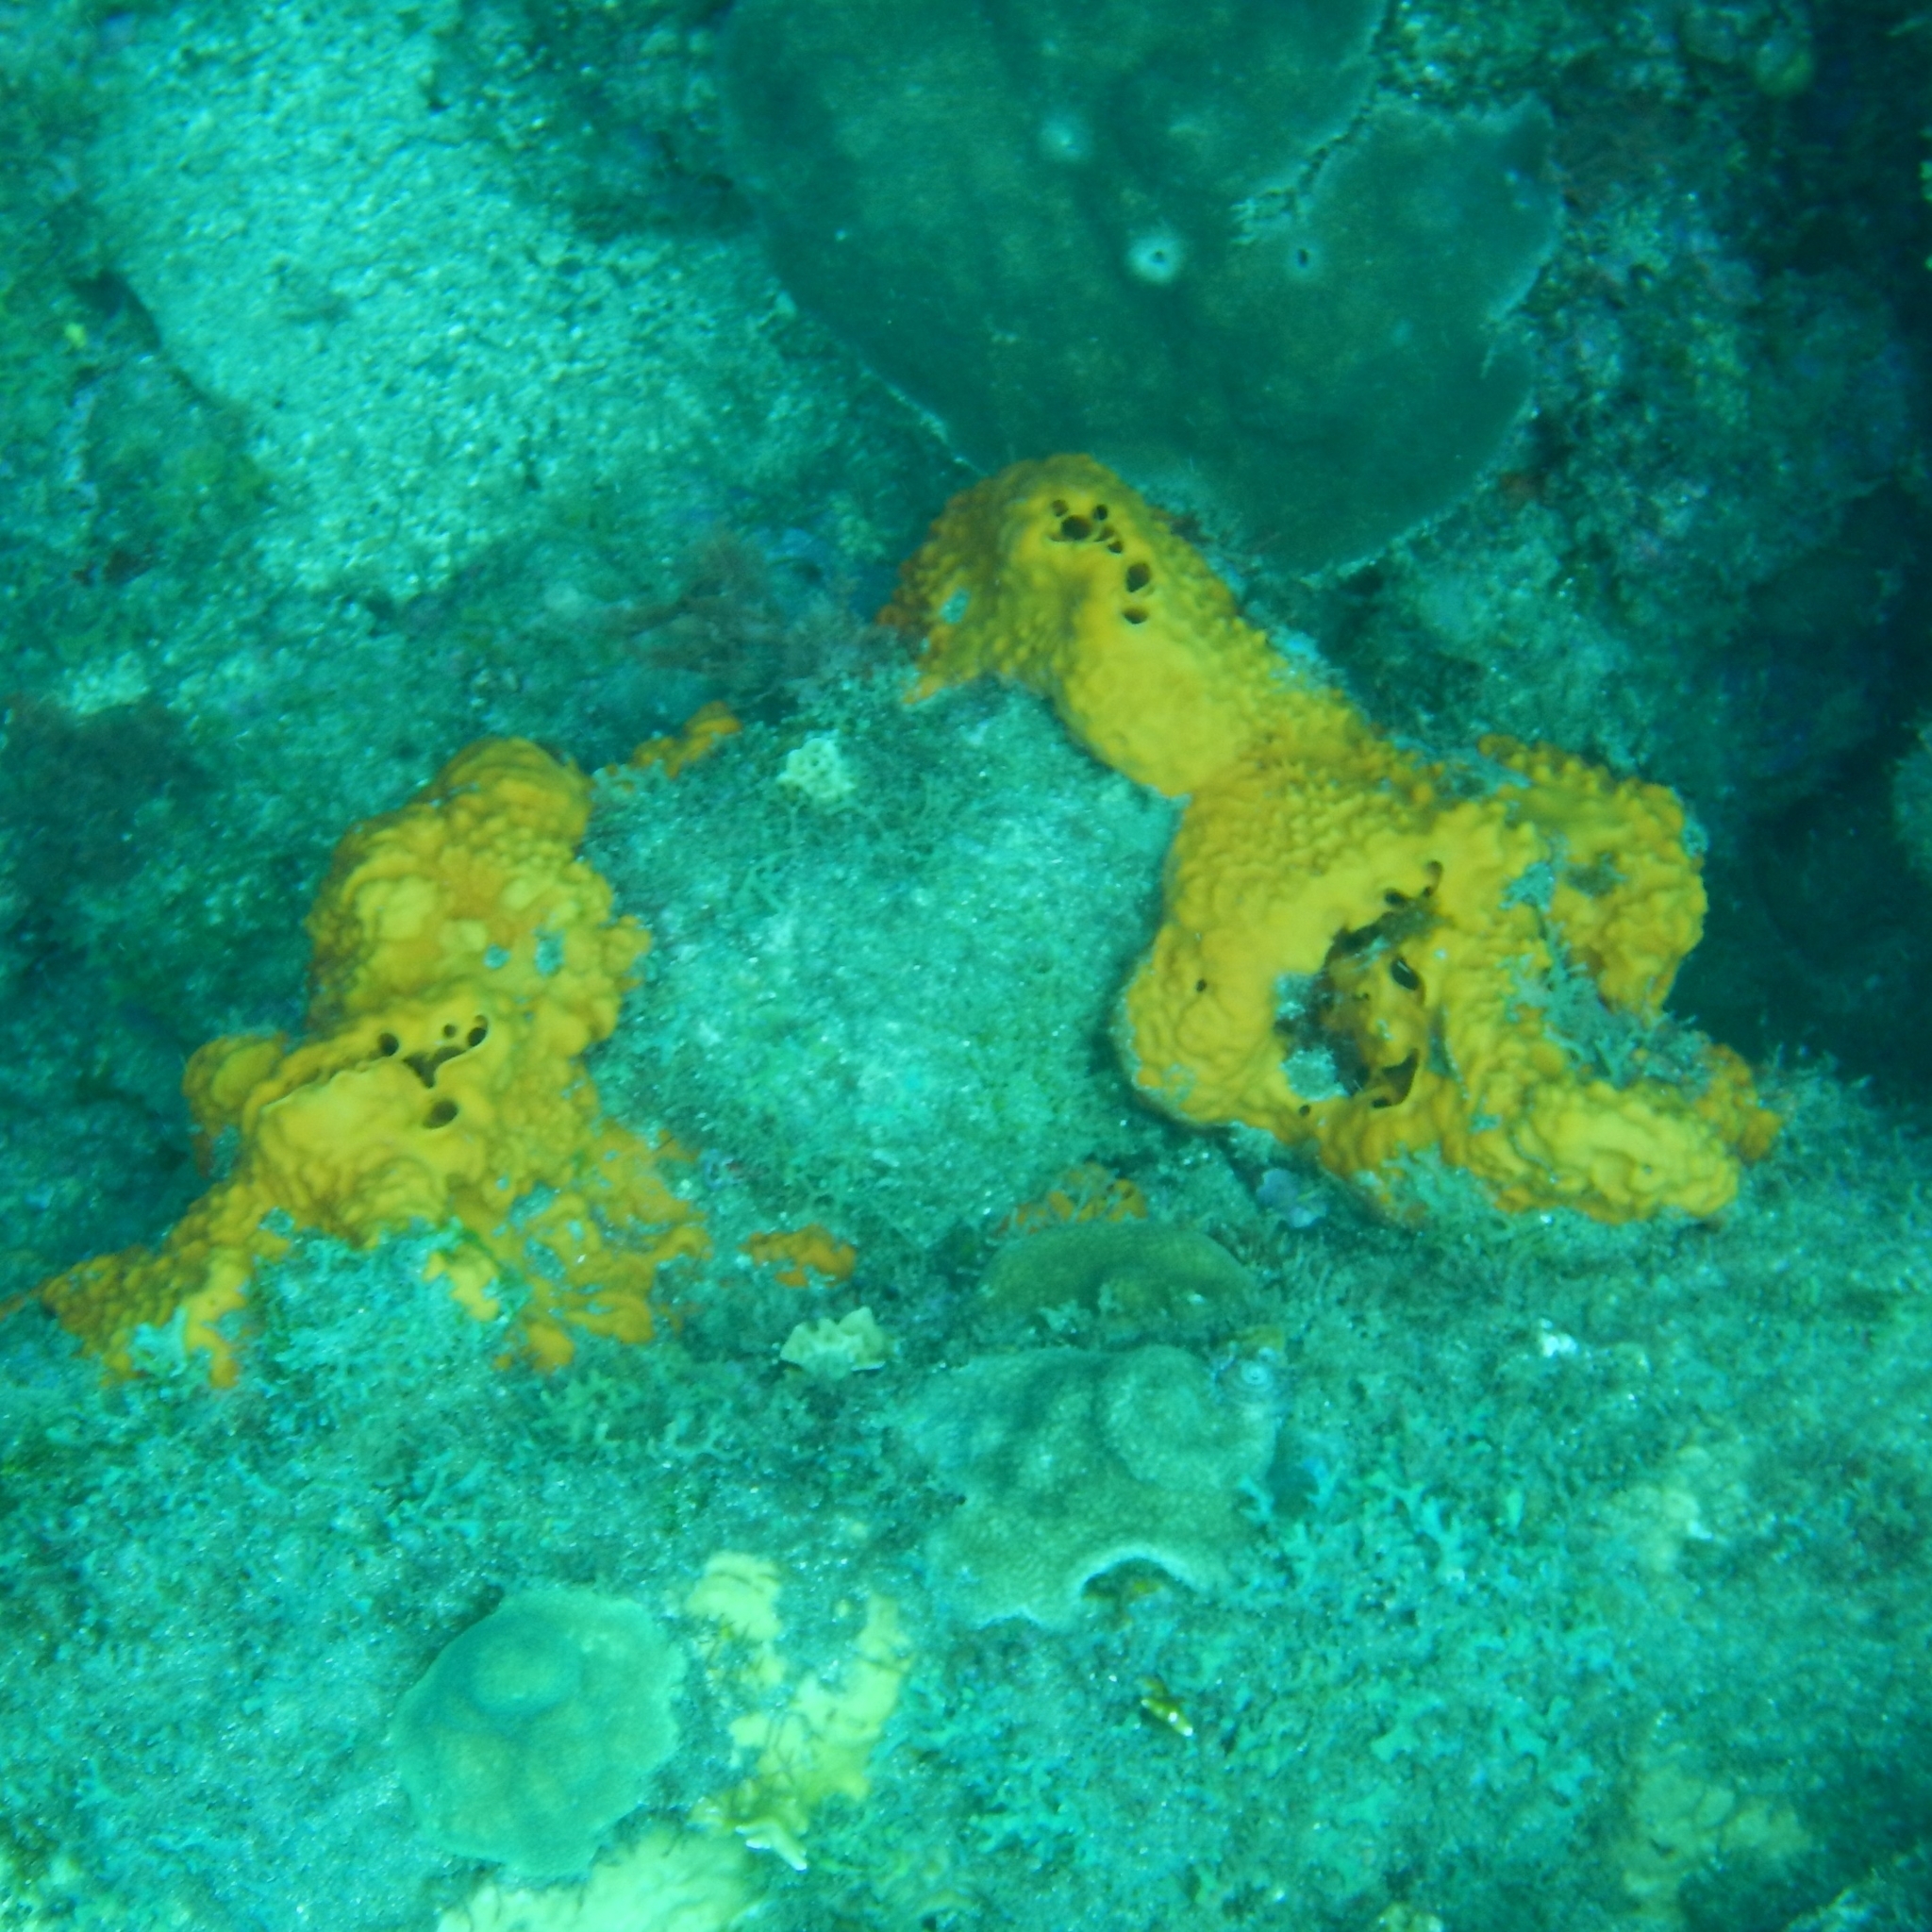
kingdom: Animalia
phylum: Porifera
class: Demospongiae
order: Verongiida
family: Aplysinidae
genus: Aiolochroia
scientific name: Aiolochroia crassa
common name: Branching tube sponge
